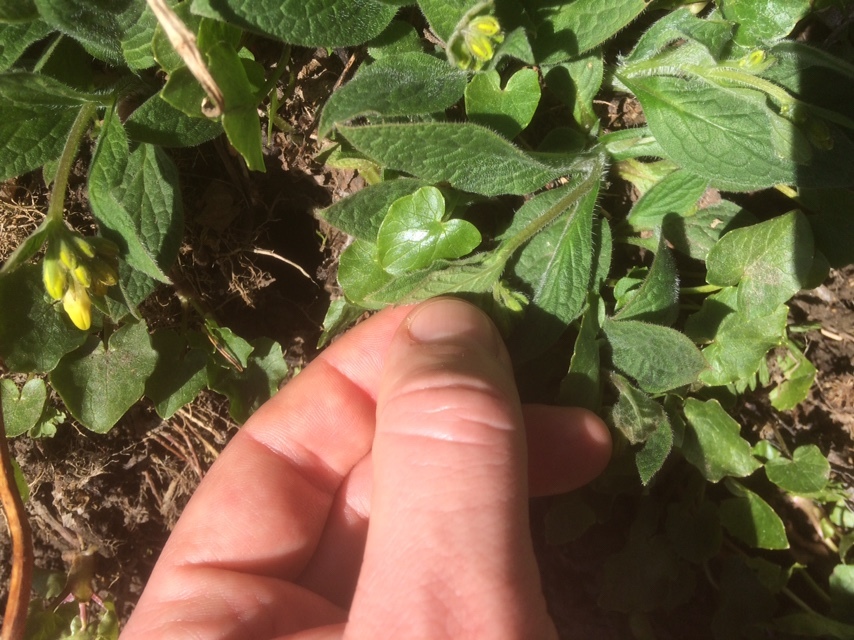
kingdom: Plantae
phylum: Tracheophyta
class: Magnoliopsida
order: Boraginales
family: Boraginaceae
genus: Symphytum
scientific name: Symphytum tuberosum
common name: Tuberous comfrey
